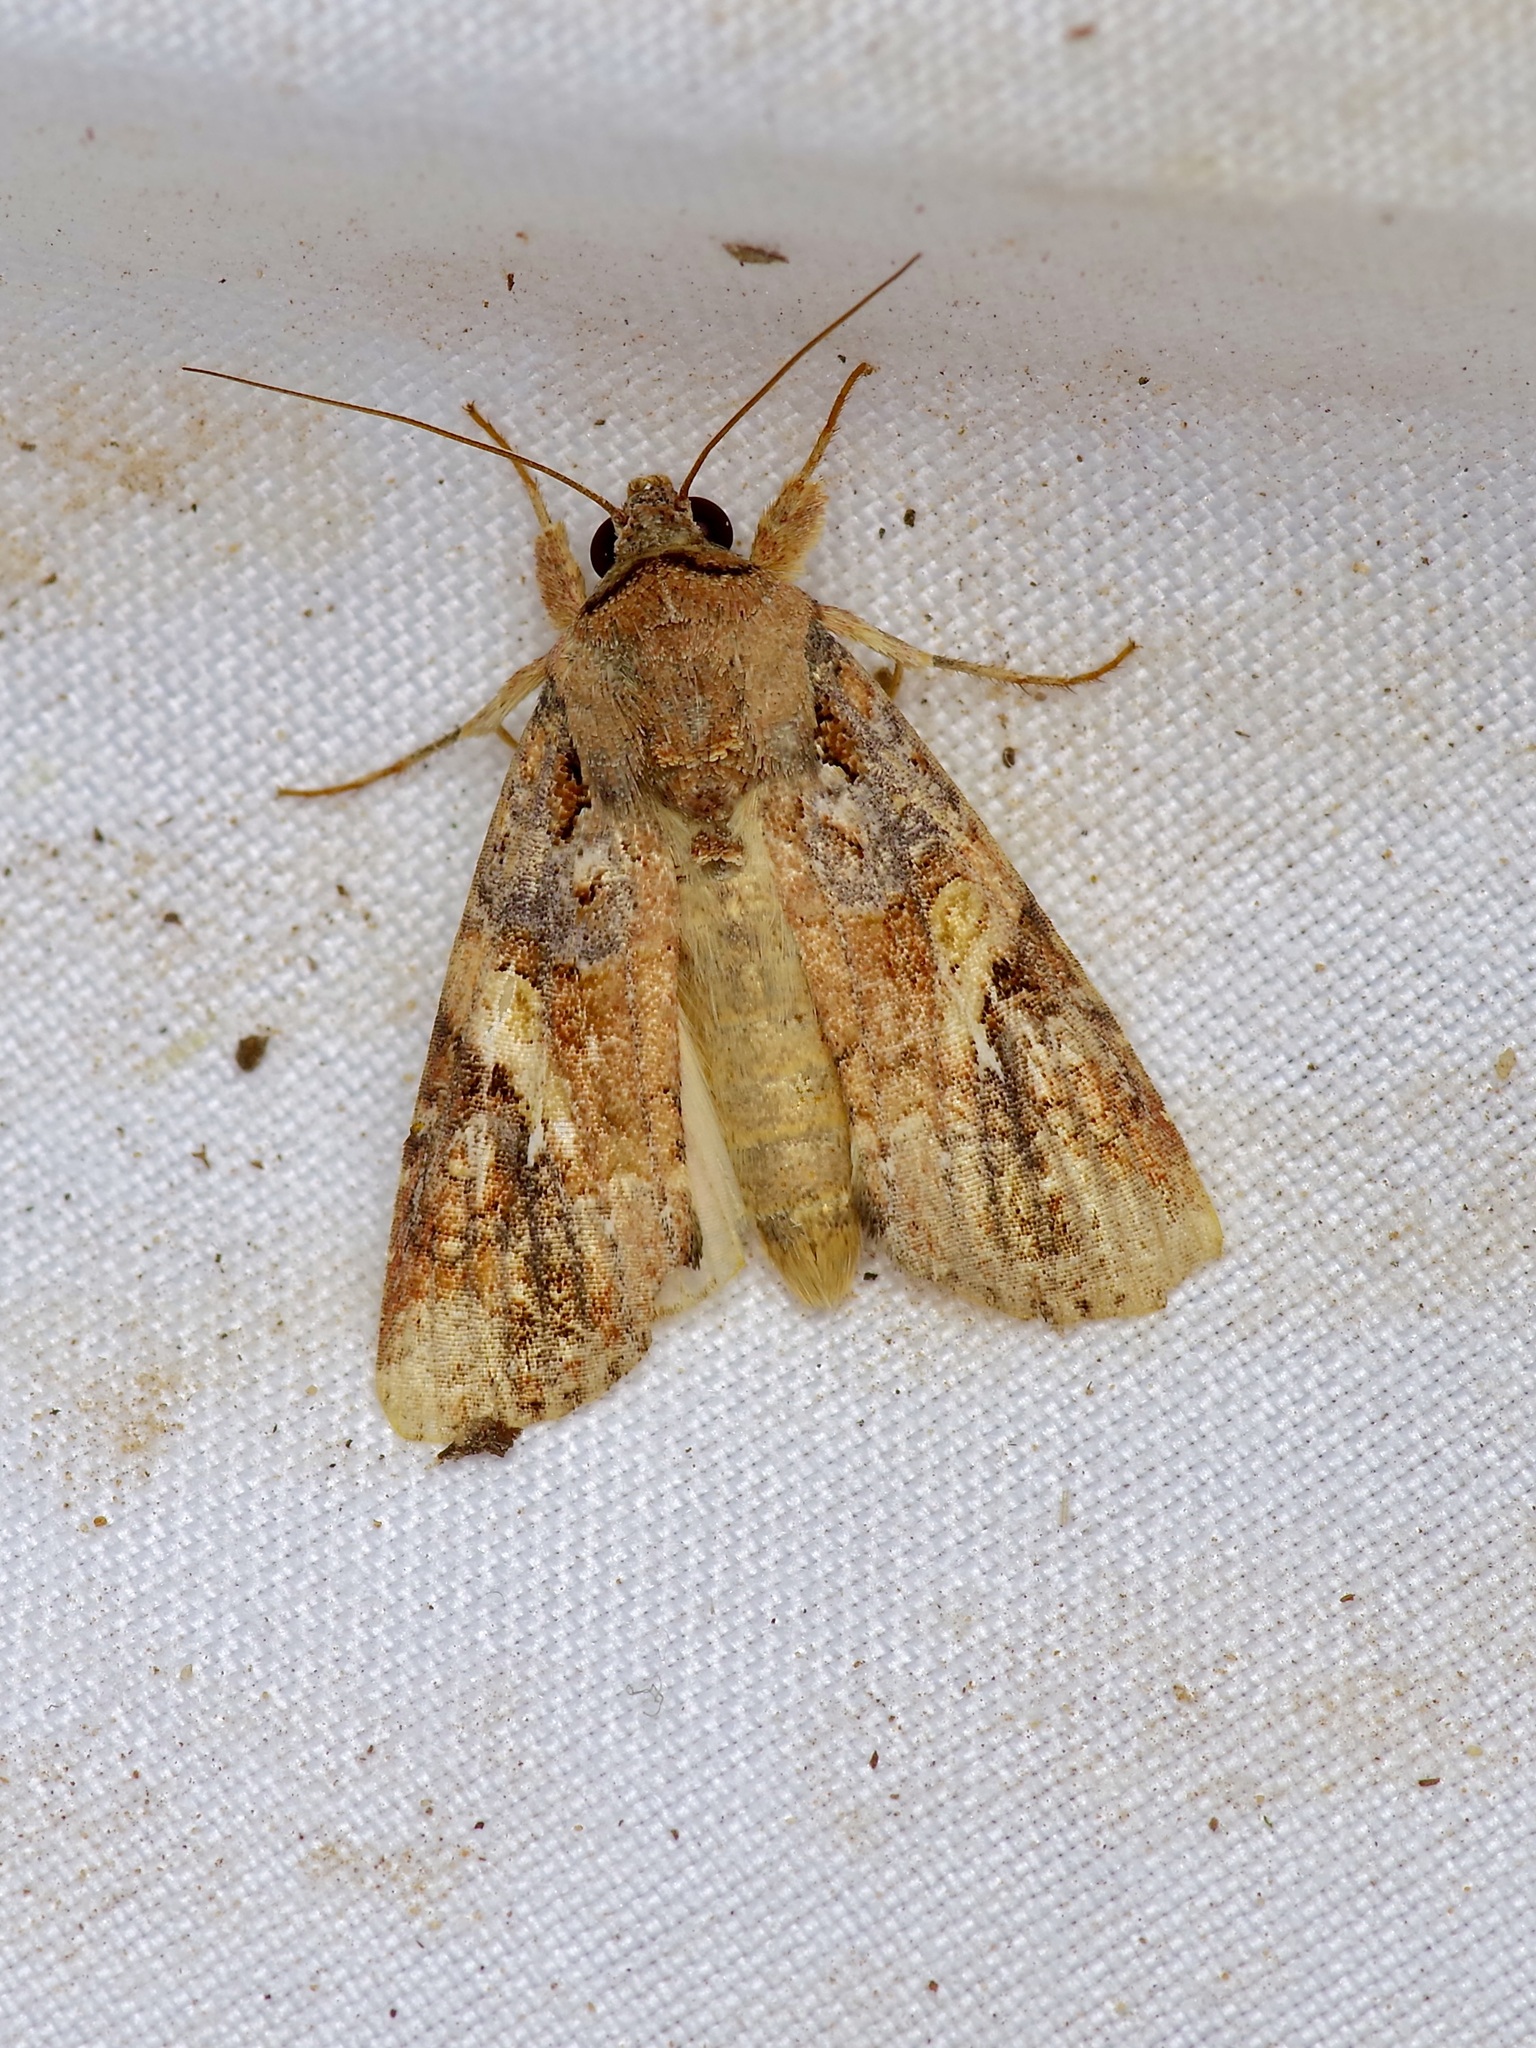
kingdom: Animalia
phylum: Arthropoda
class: Insecta
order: Lepidoptera
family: Noctuidae
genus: Spodoptera
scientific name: Spodoptera frugiperda
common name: Fall armyworm
